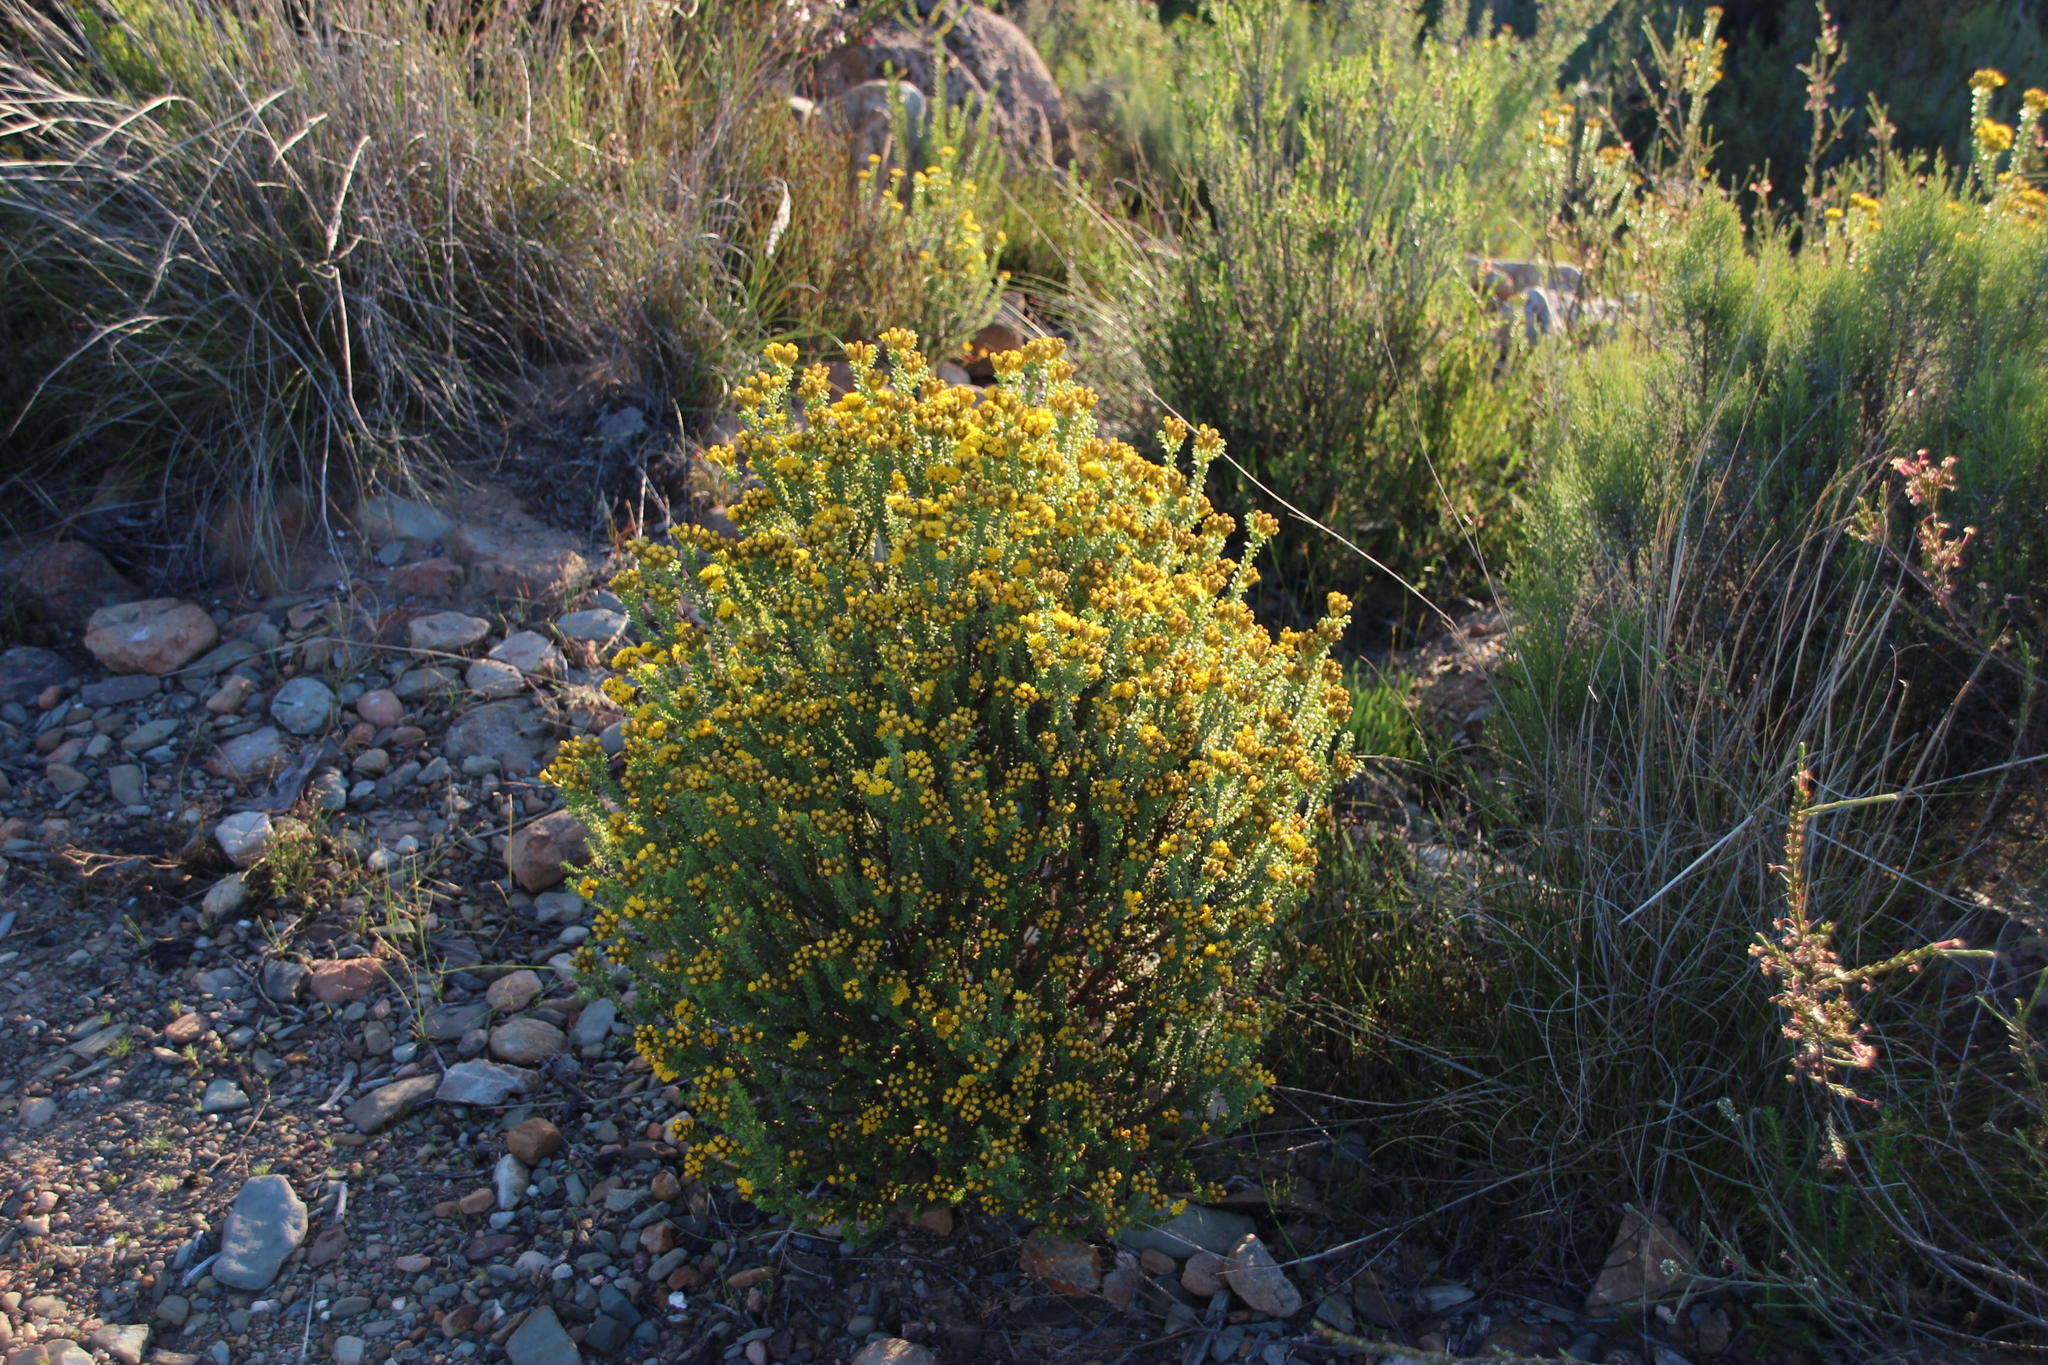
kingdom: Plantae
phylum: Tracheophyta
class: Magnoliopsida
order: Asterales
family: Asteraceae
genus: Oedera
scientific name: Oedera squarrosa
